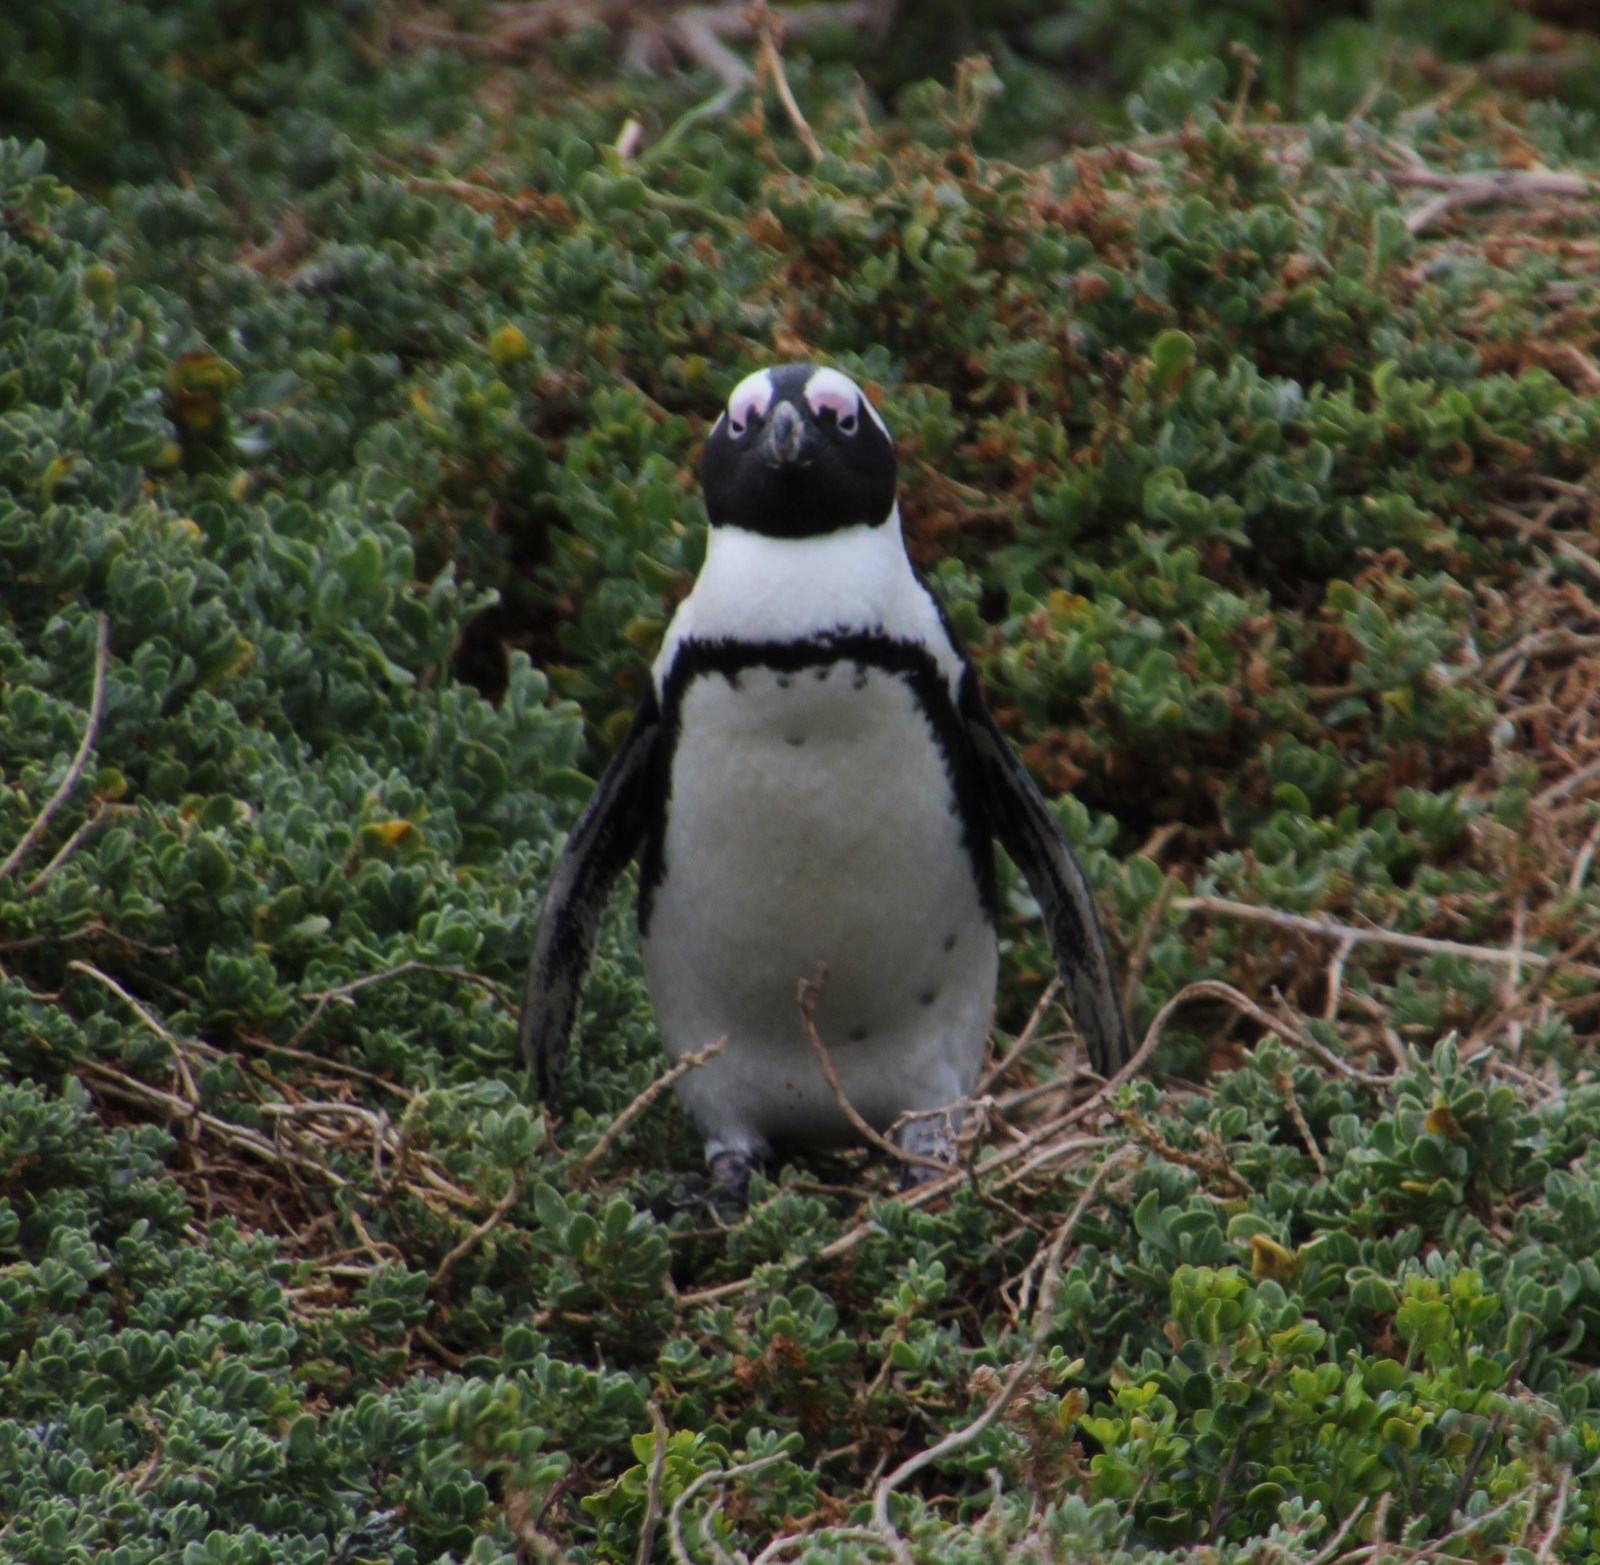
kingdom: Animalia
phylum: Chordata
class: Aves
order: Sphenisciformes
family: Spheniscidae
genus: Spheniscus
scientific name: Spheniscus demersus
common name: African penguin
